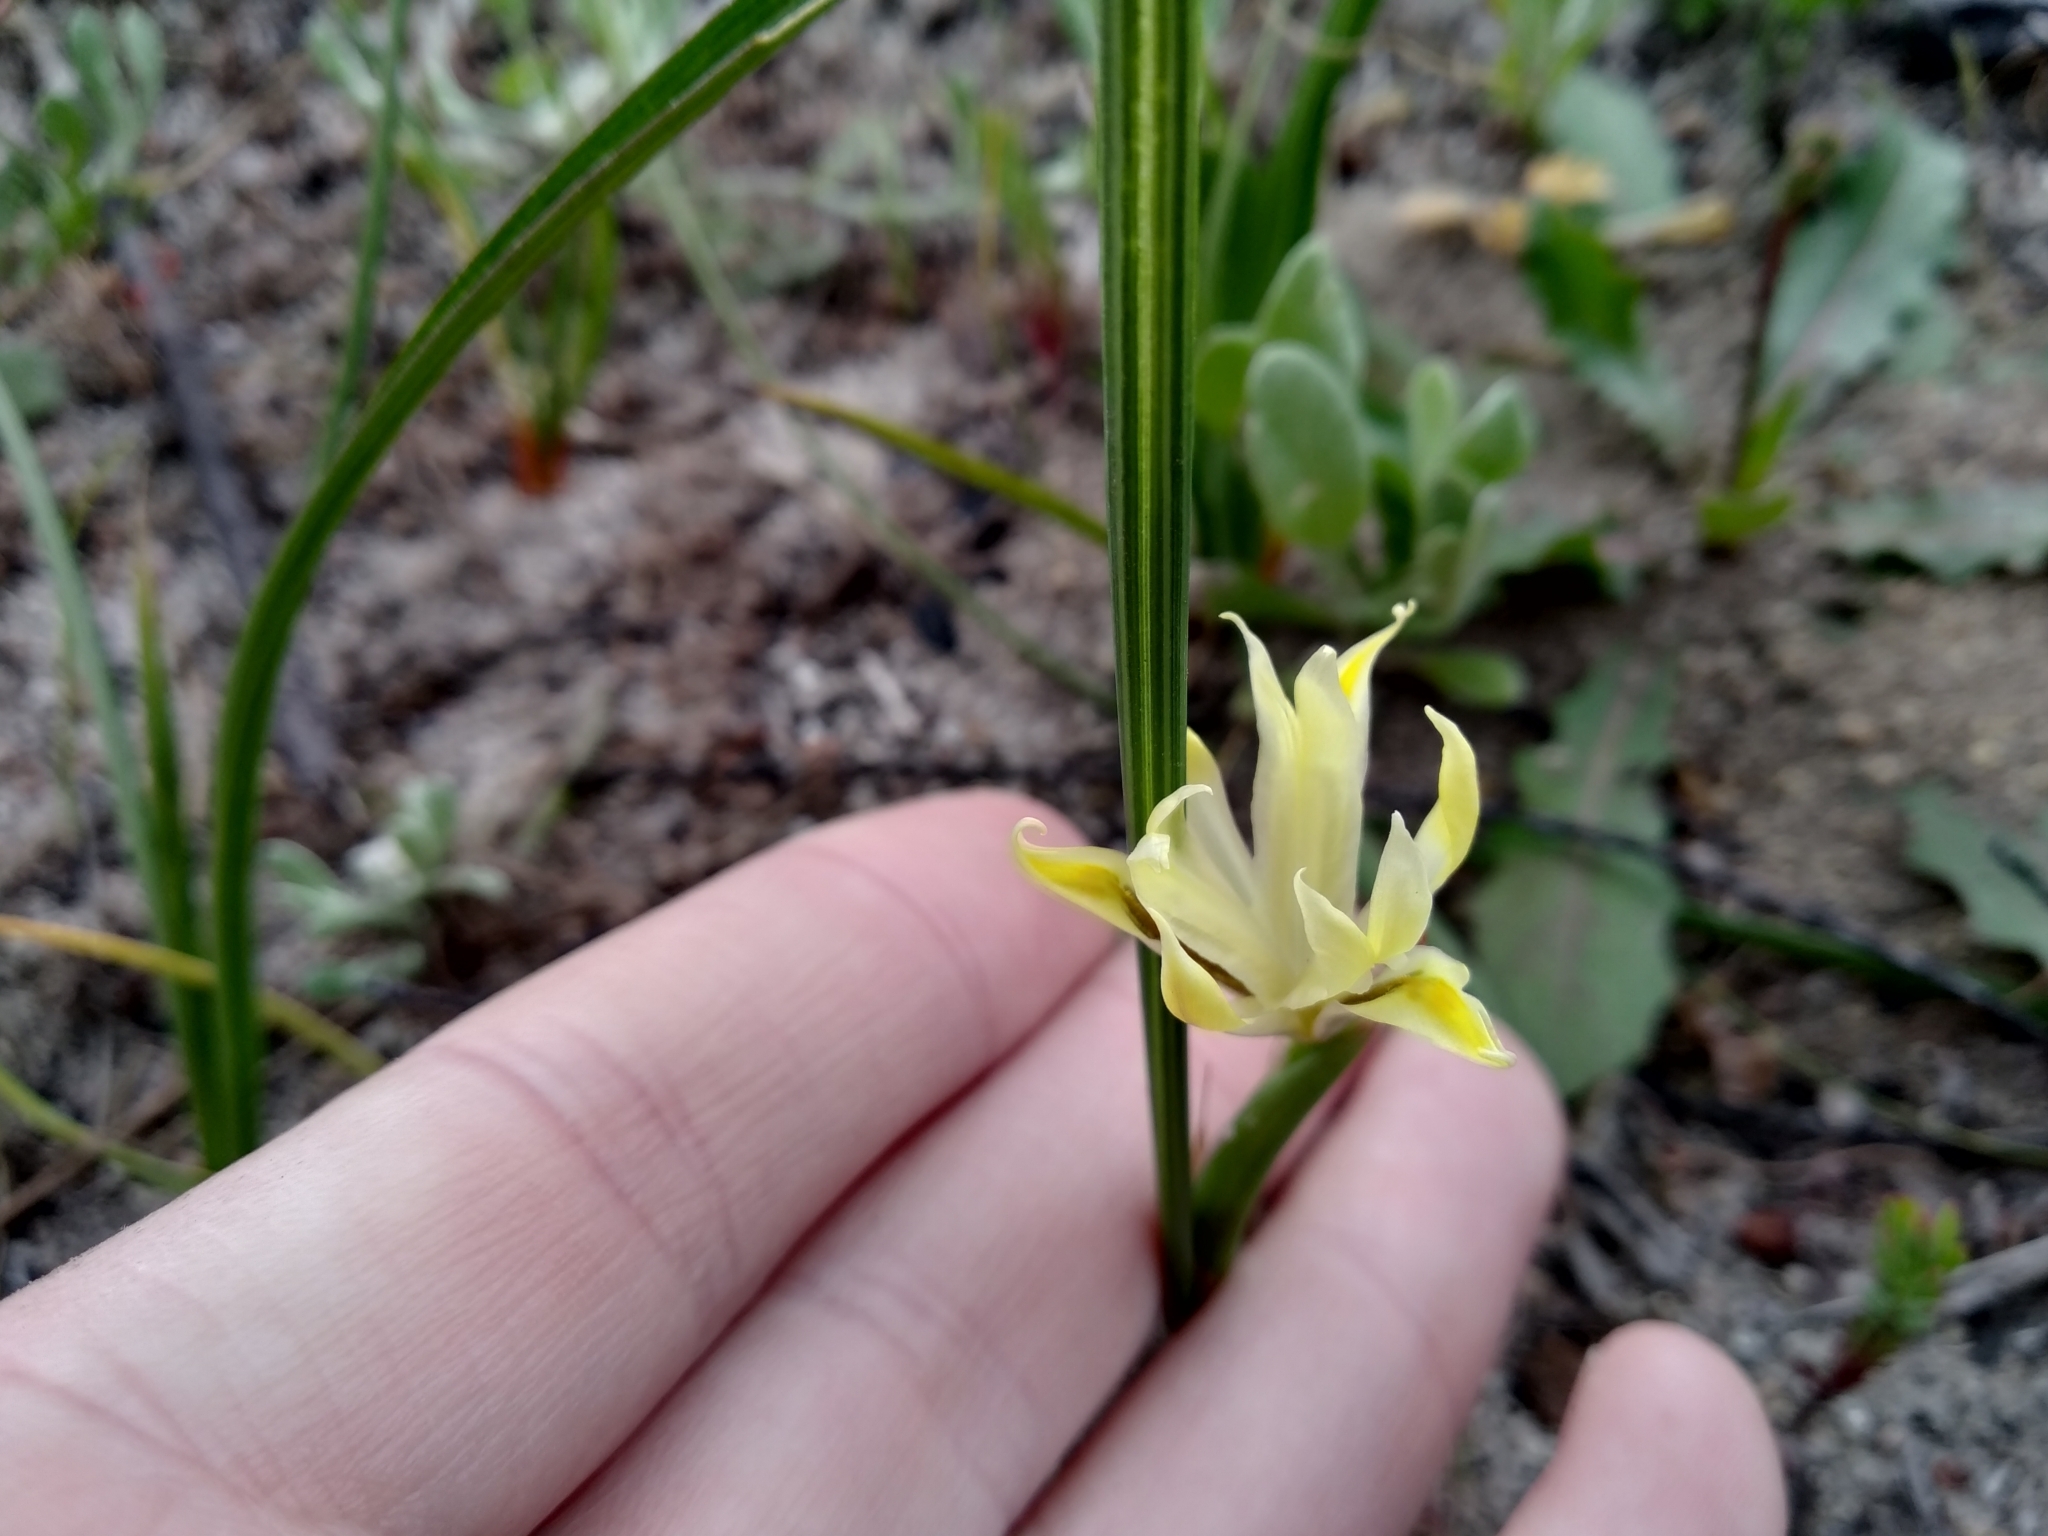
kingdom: Plantae
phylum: Tracheophyta
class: Liliopsida
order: Asparagales
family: Iridaceae
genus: Moraea
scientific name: Moraea fugax
